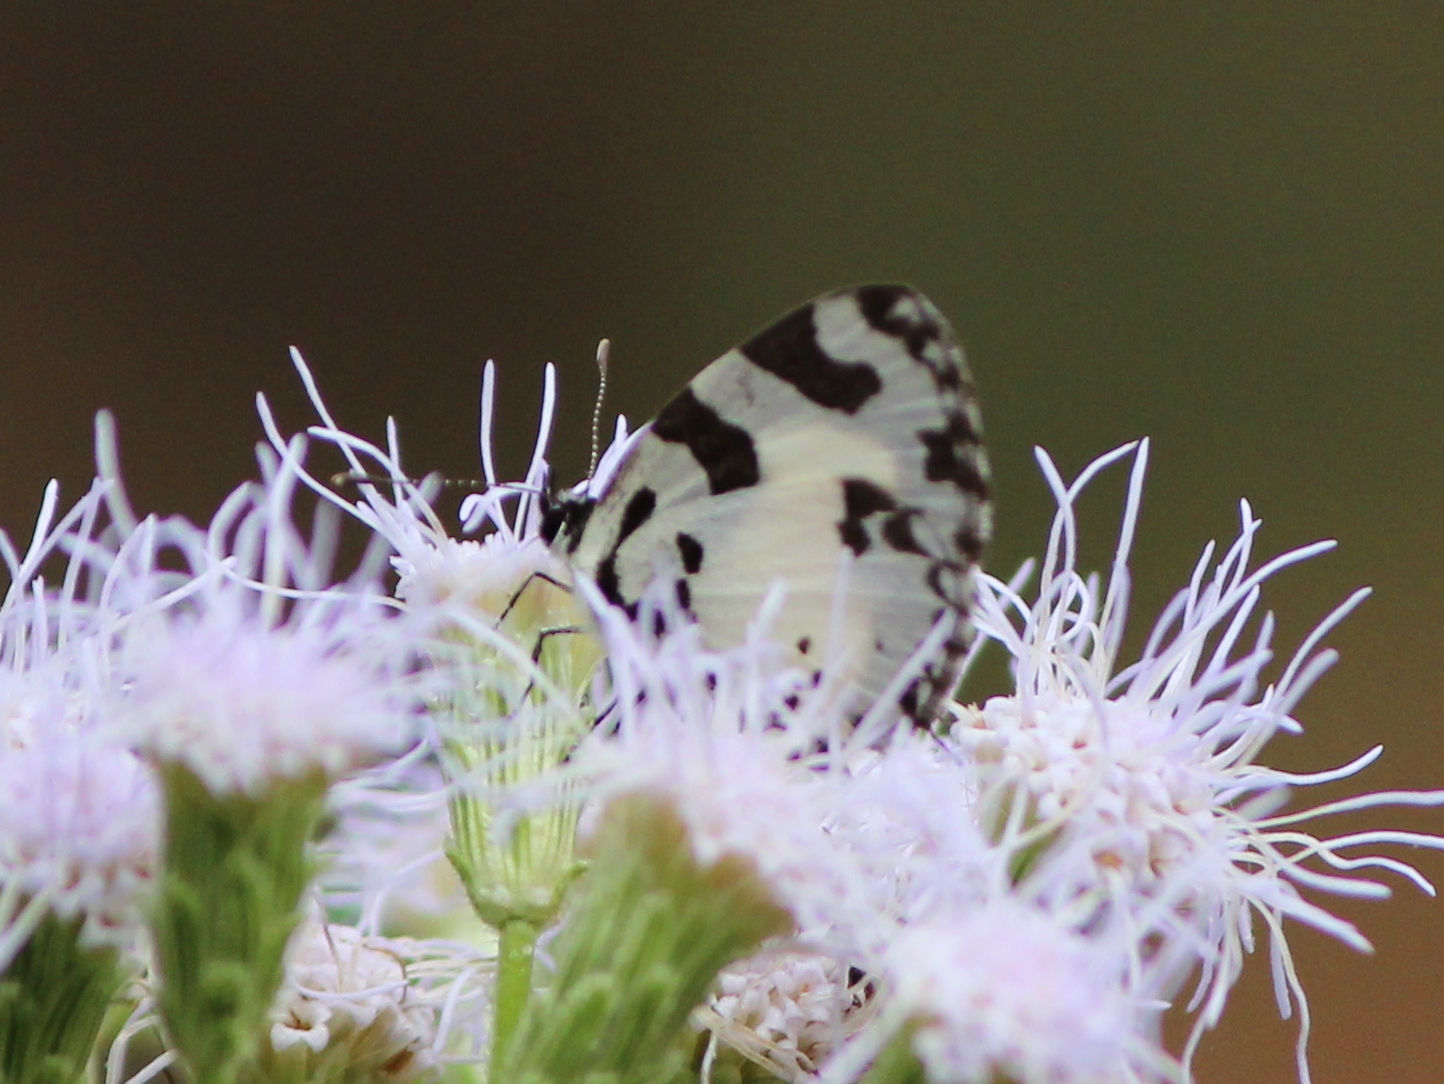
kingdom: Animalia
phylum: Arthropoda
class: Insecta
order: Lepidoptera
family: Lycaenidae
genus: Caleta
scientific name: Caleta decidia
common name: Angled pierrot
